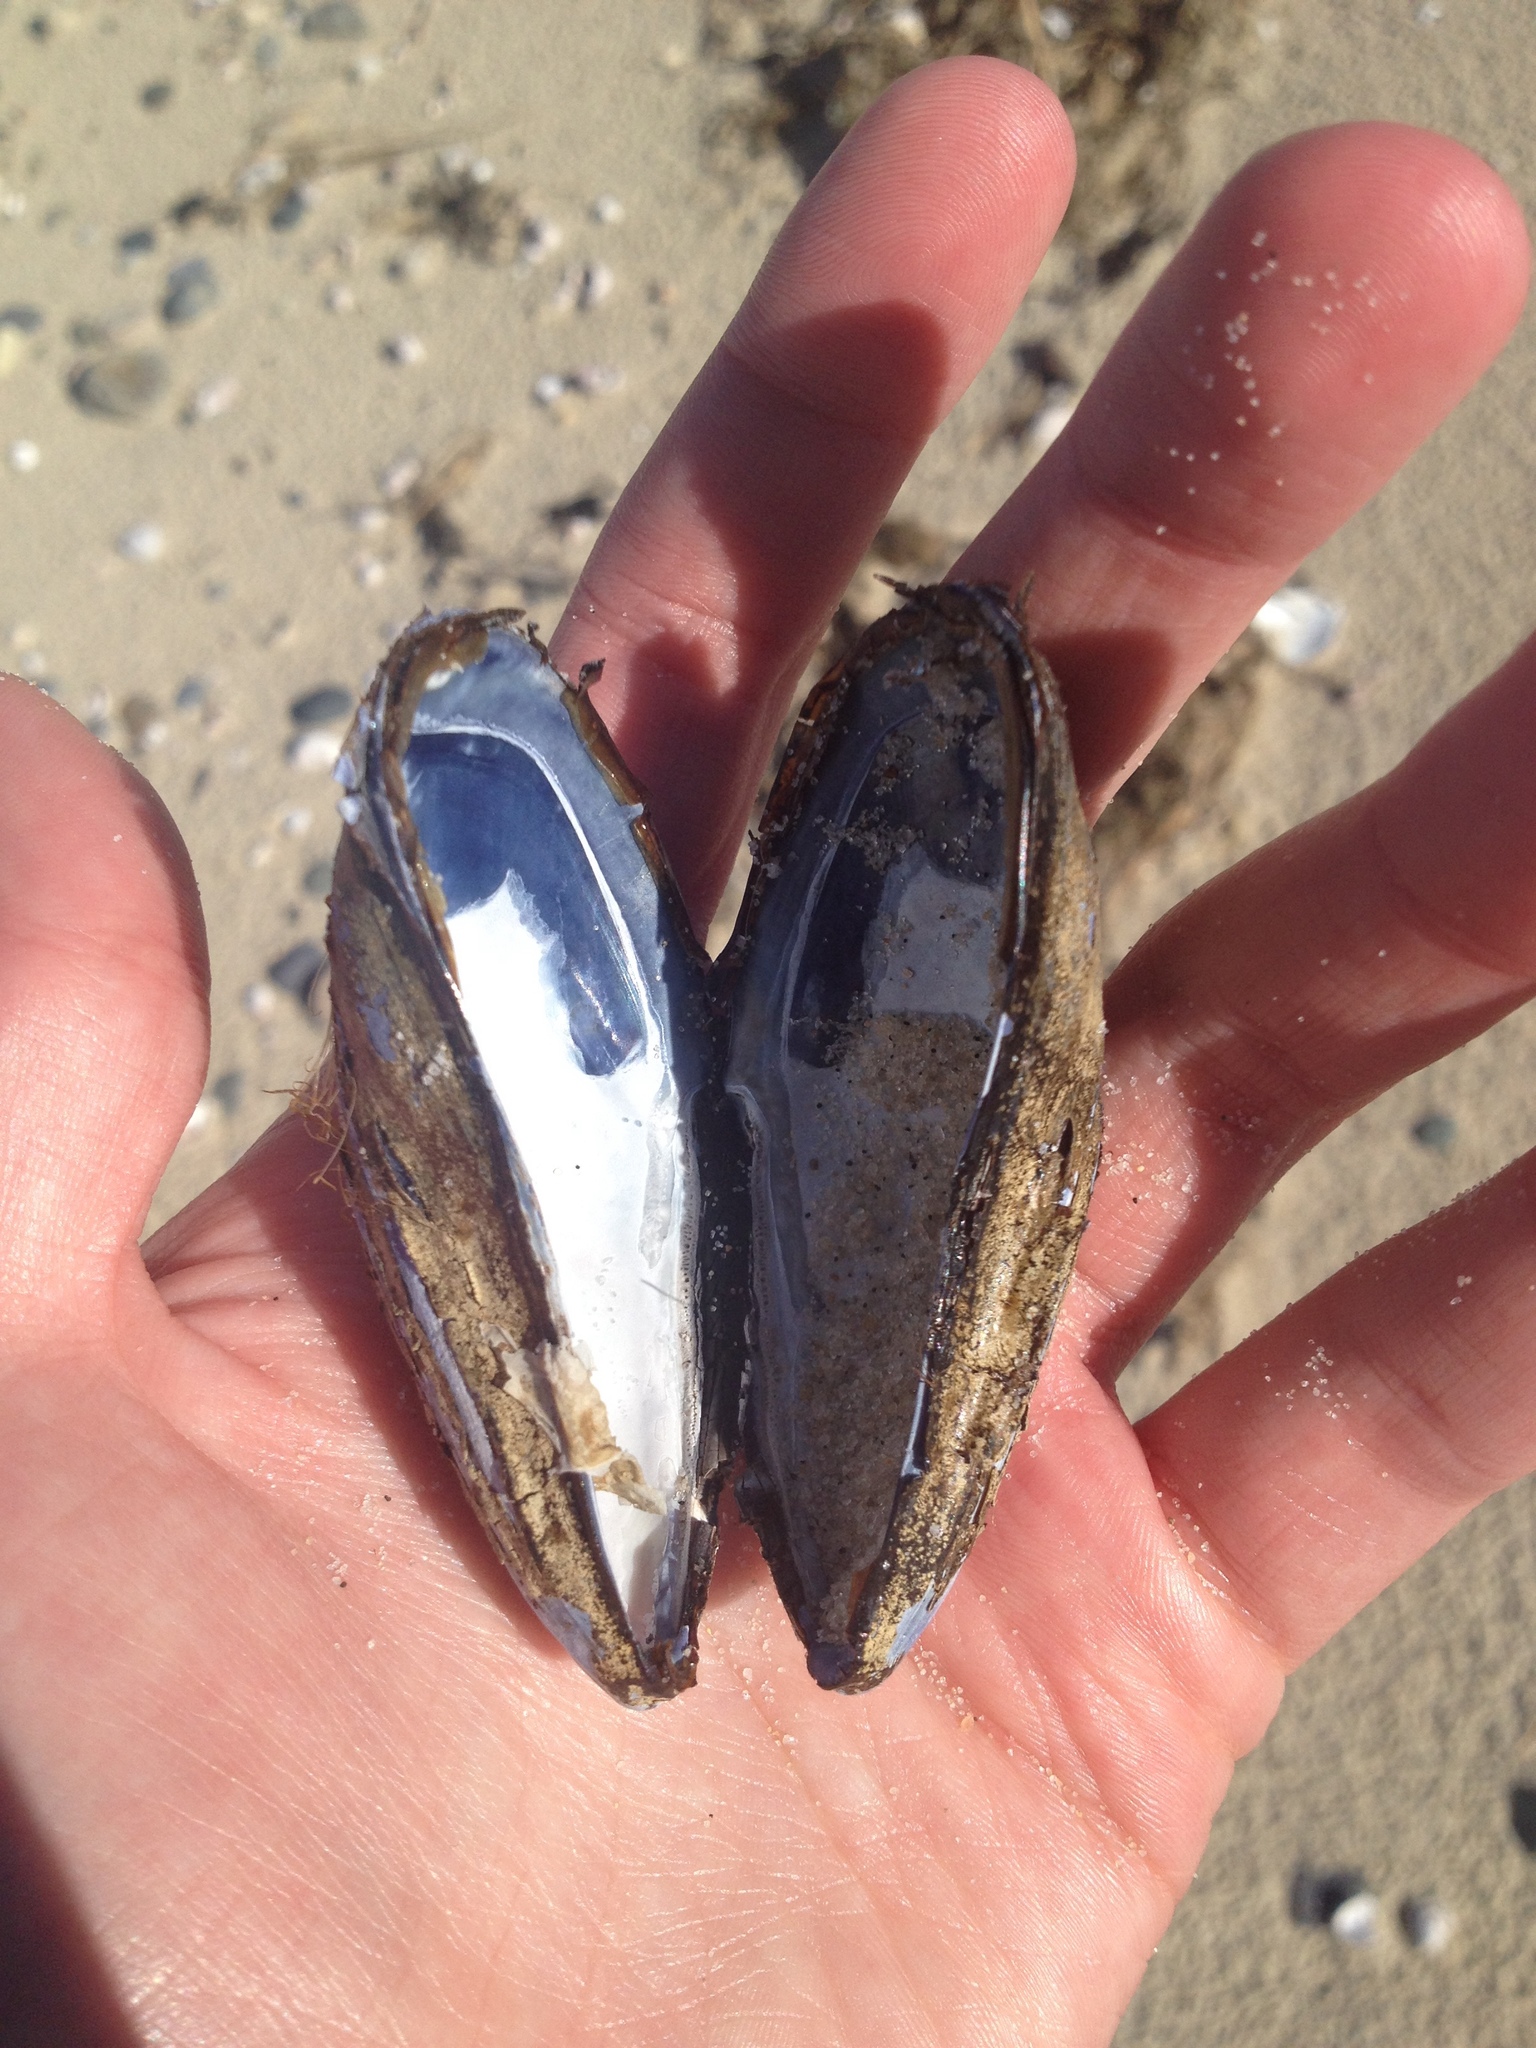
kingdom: Animalia
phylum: Mollusca
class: Bivalvia
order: Mytilida
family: Mytilidae
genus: Mytilus
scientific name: Mytilus edulis
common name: Blue mussel
